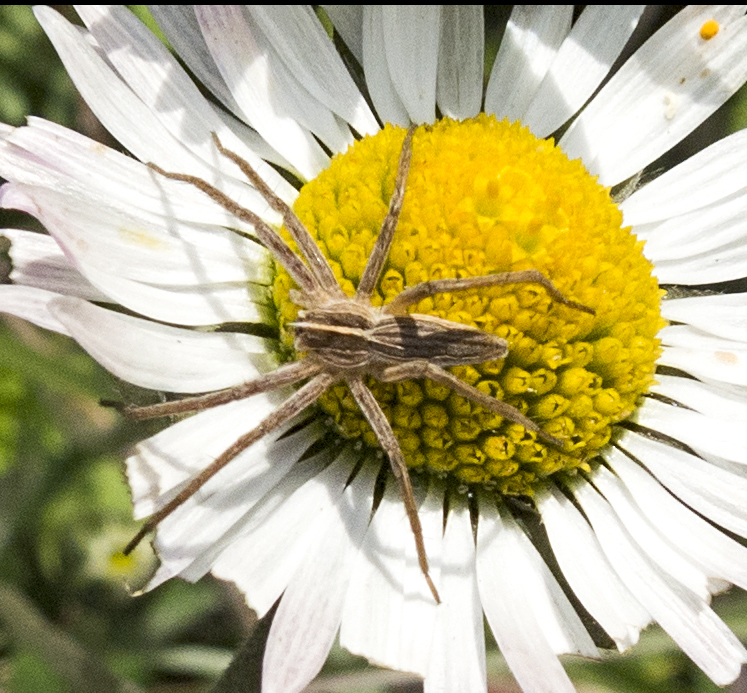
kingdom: Animalia
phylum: Arthropoda
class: Arachnida
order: Araneae
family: Pisauridae
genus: Pisaura
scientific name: Pisaura mirabilis
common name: Tent spider
